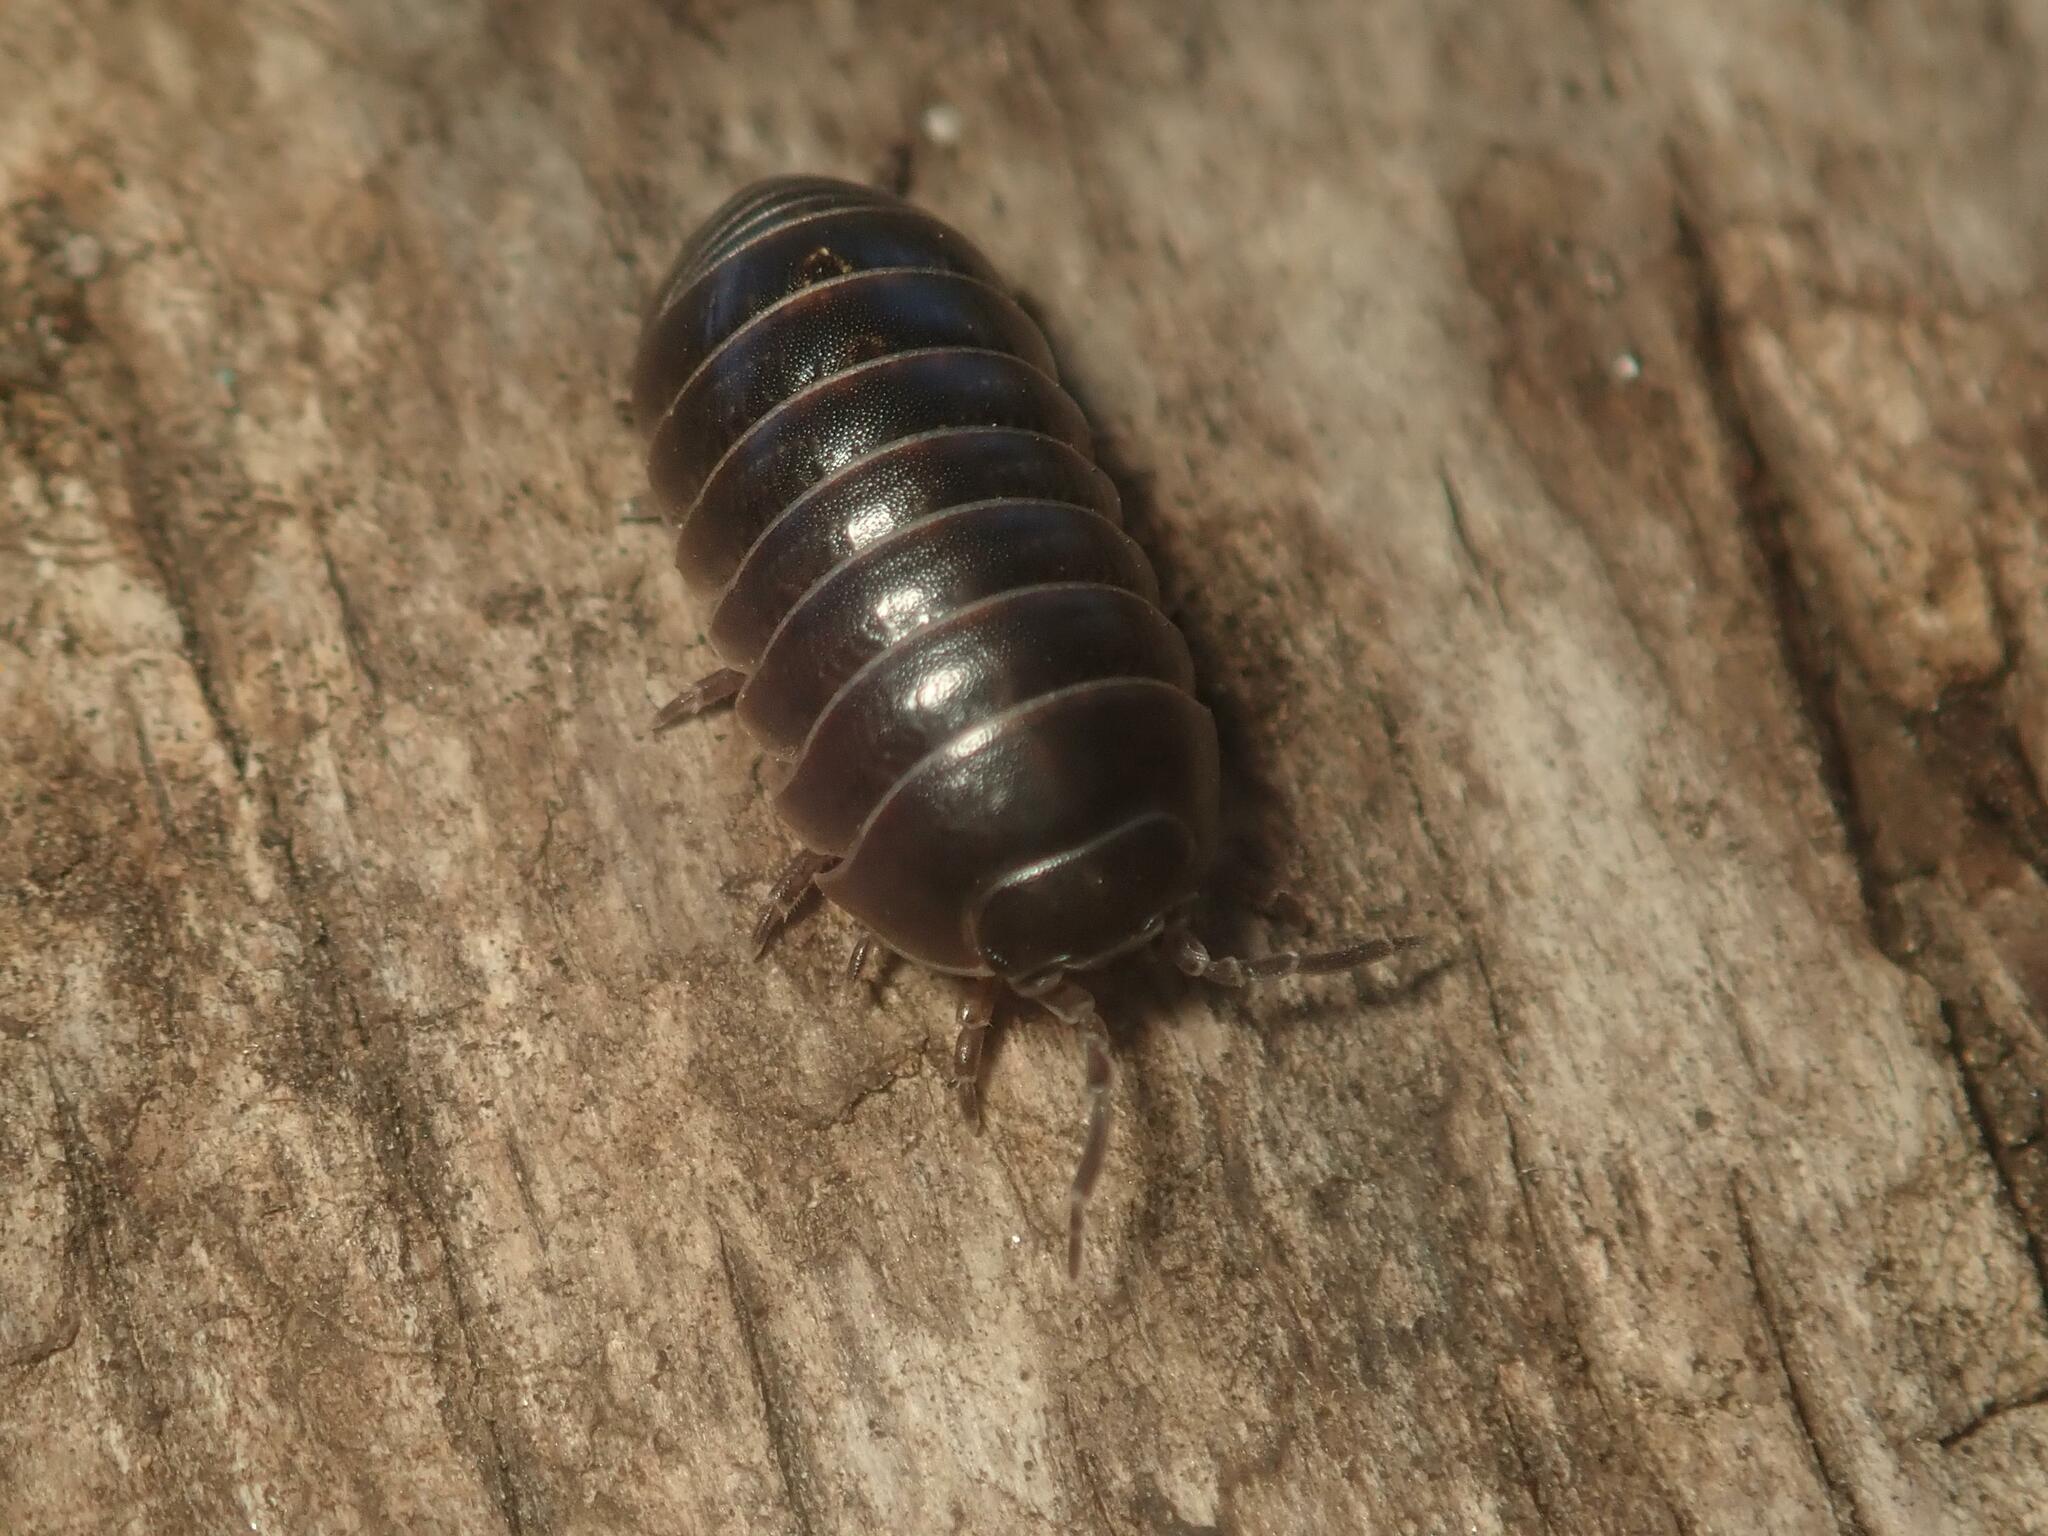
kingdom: Animalia
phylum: Arthropoda
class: Malacostraca
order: Isopoda
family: Armadillidiidae
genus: Armadillidium
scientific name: Armadillidium vulgare
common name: Common pill woodlouse
